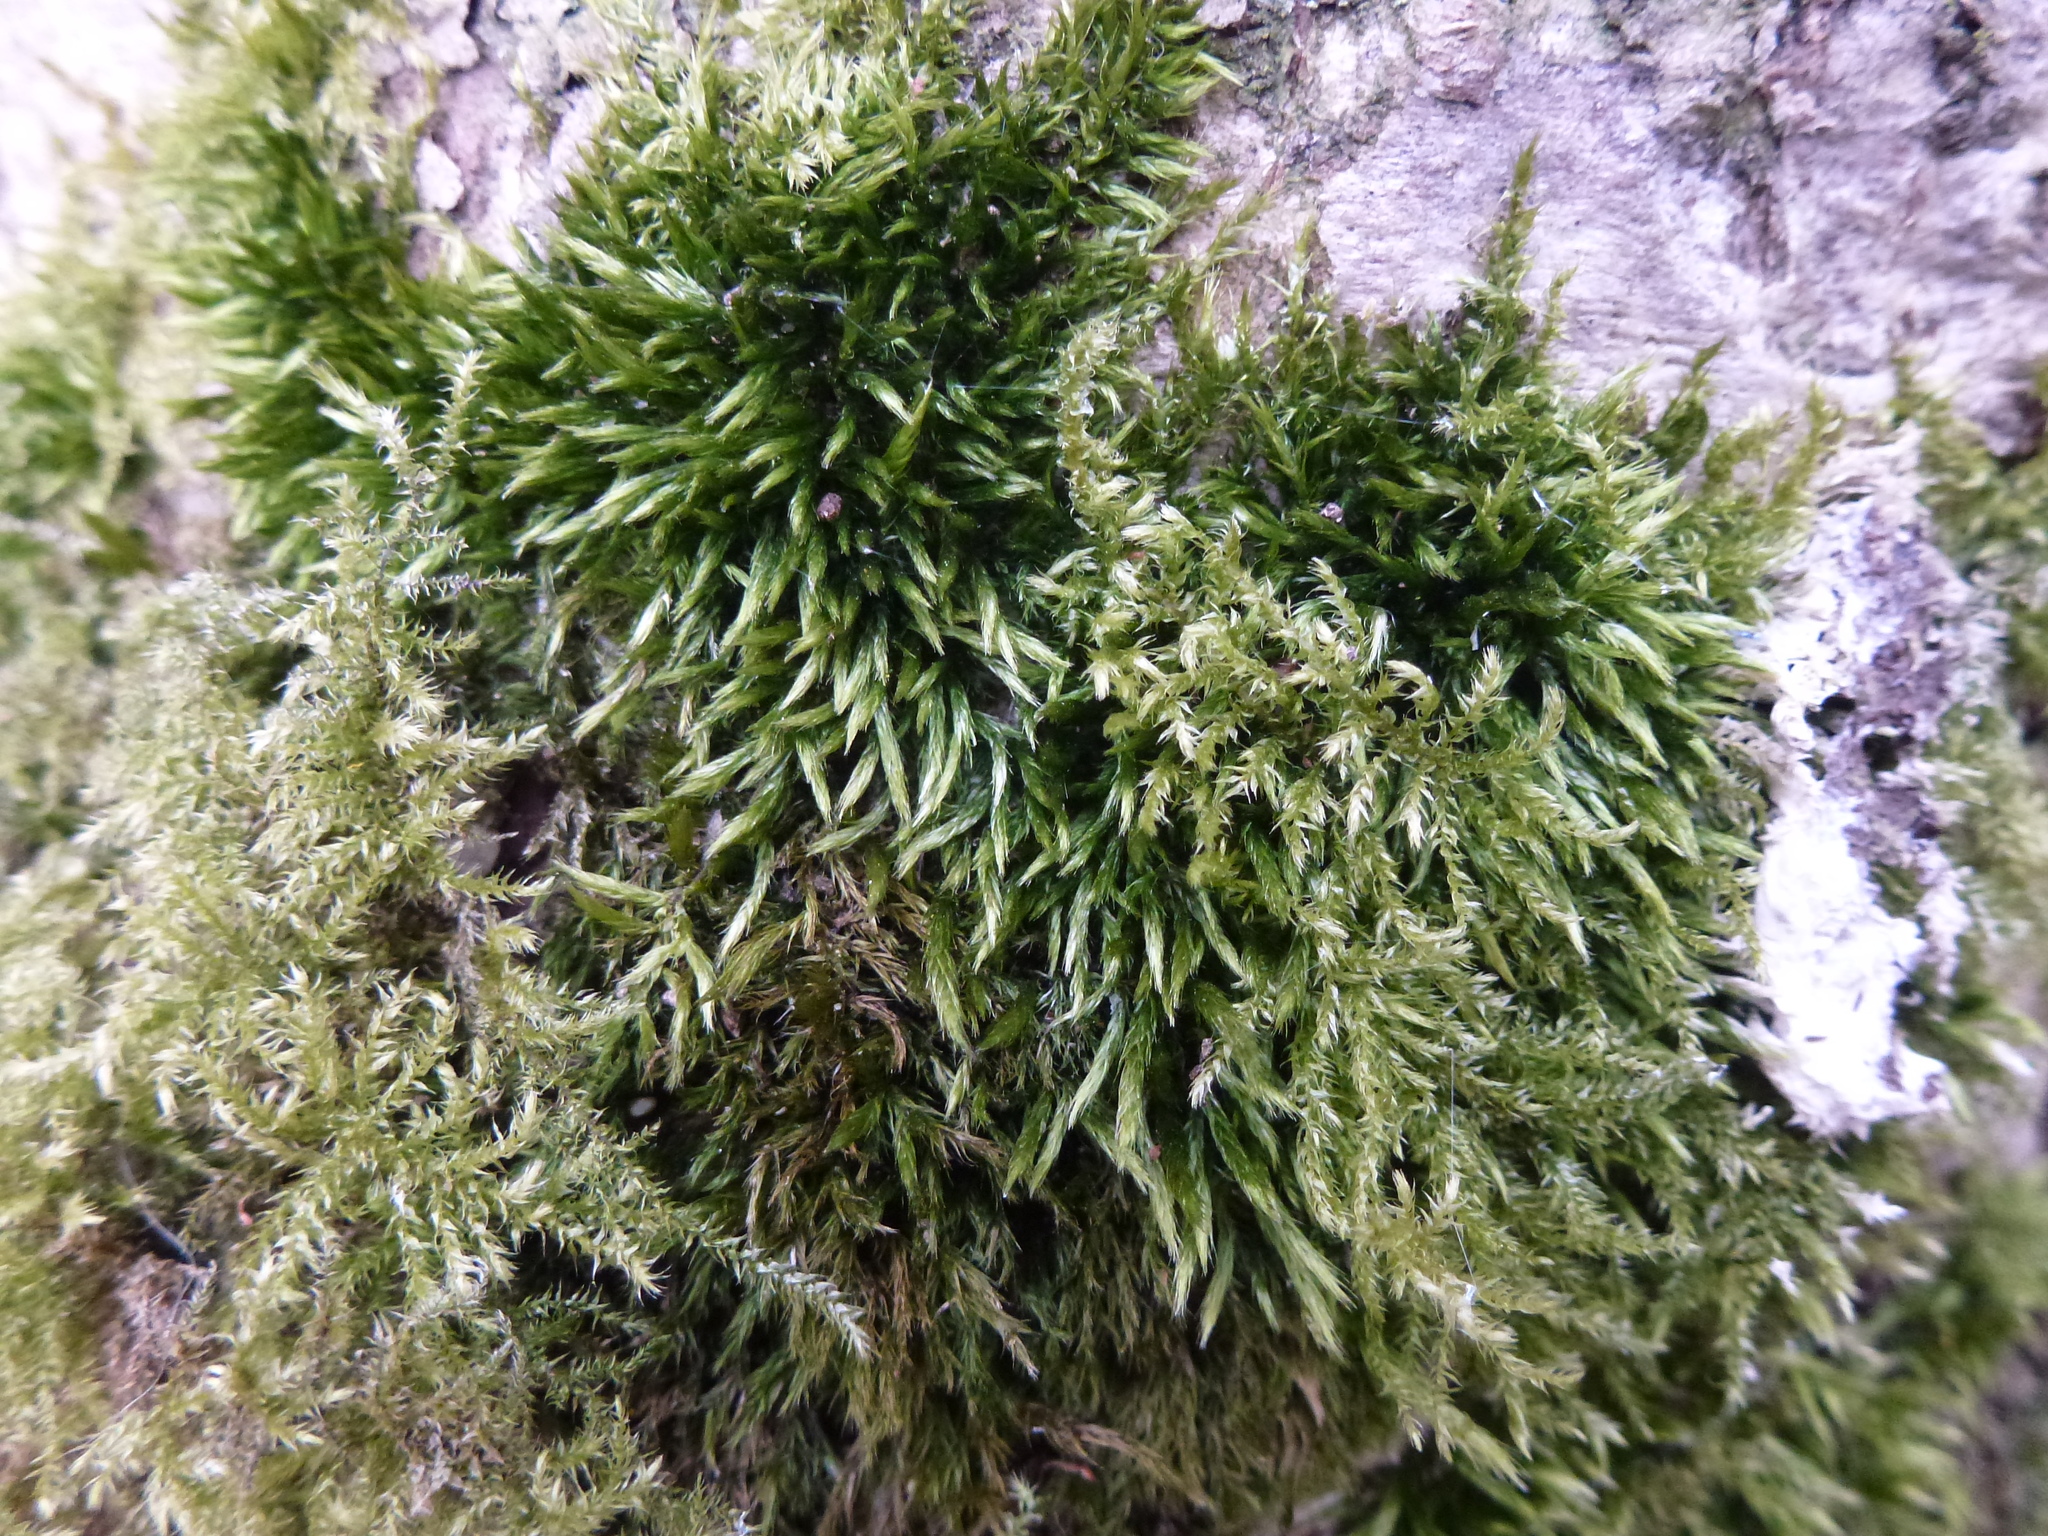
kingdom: Plantae
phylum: Bryophyta
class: Bryopsida
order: Hypnales
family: Brachytheciaceae
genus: Sciuro-hypnum
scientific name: Sciuro-hypnum populeum
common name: Matted feather-moss
